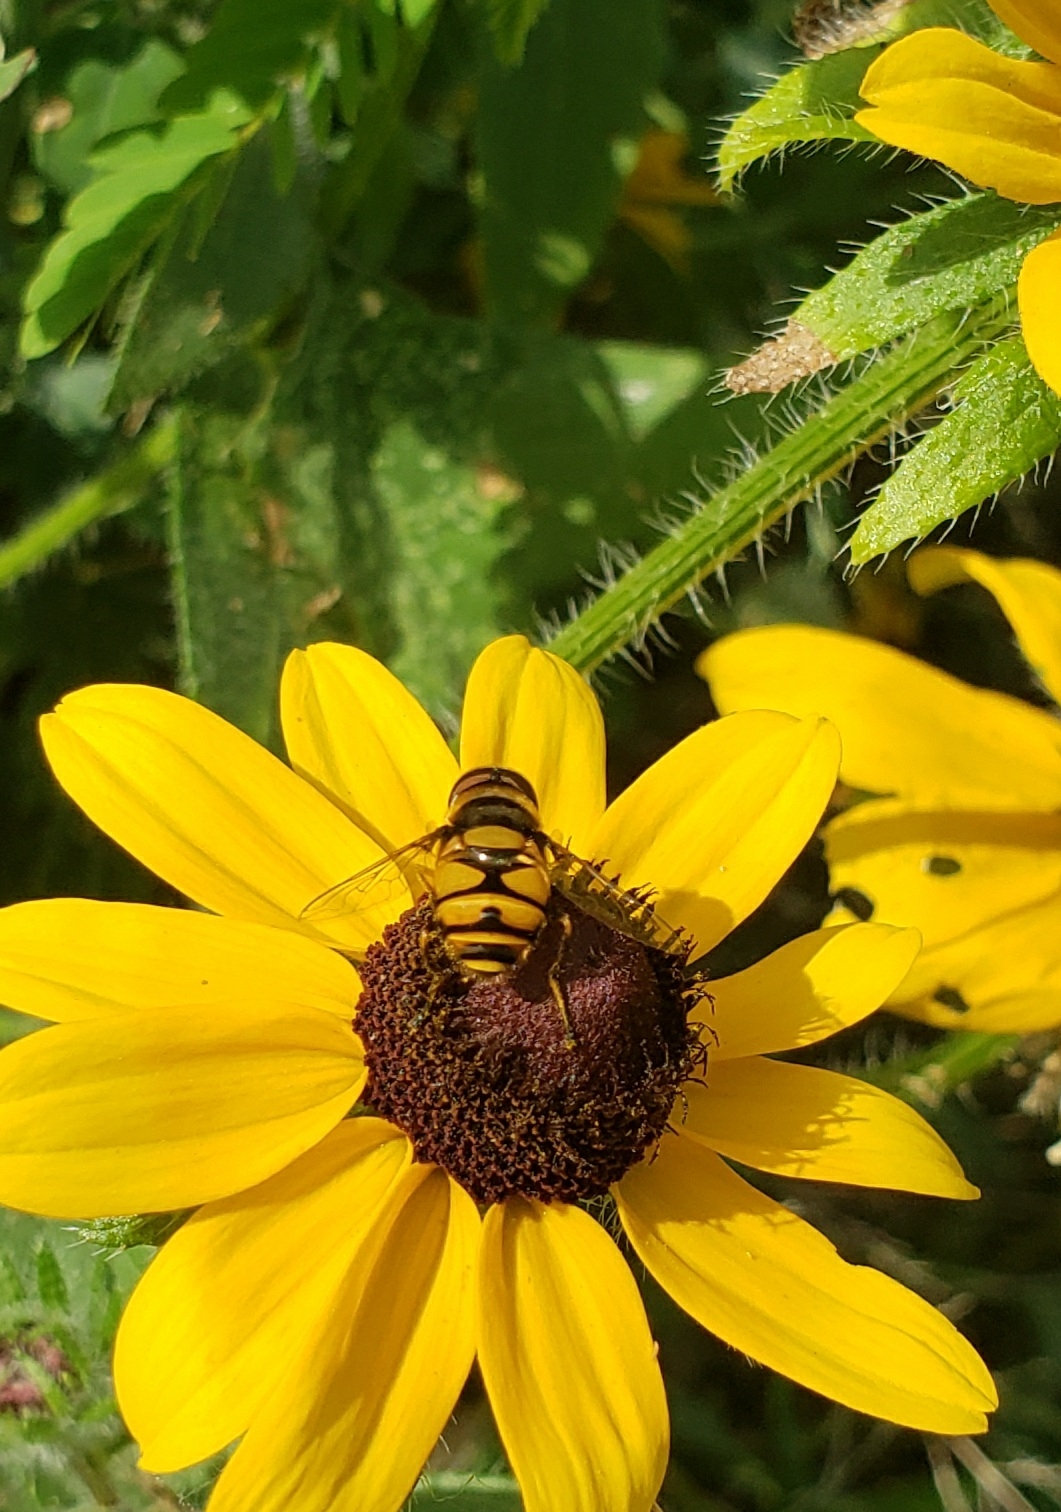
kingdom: Animalia
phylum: Arthropoda
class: Insecta
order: Diptera
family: Syrphidae
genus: Eristalis
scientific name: Eristalis transversa
